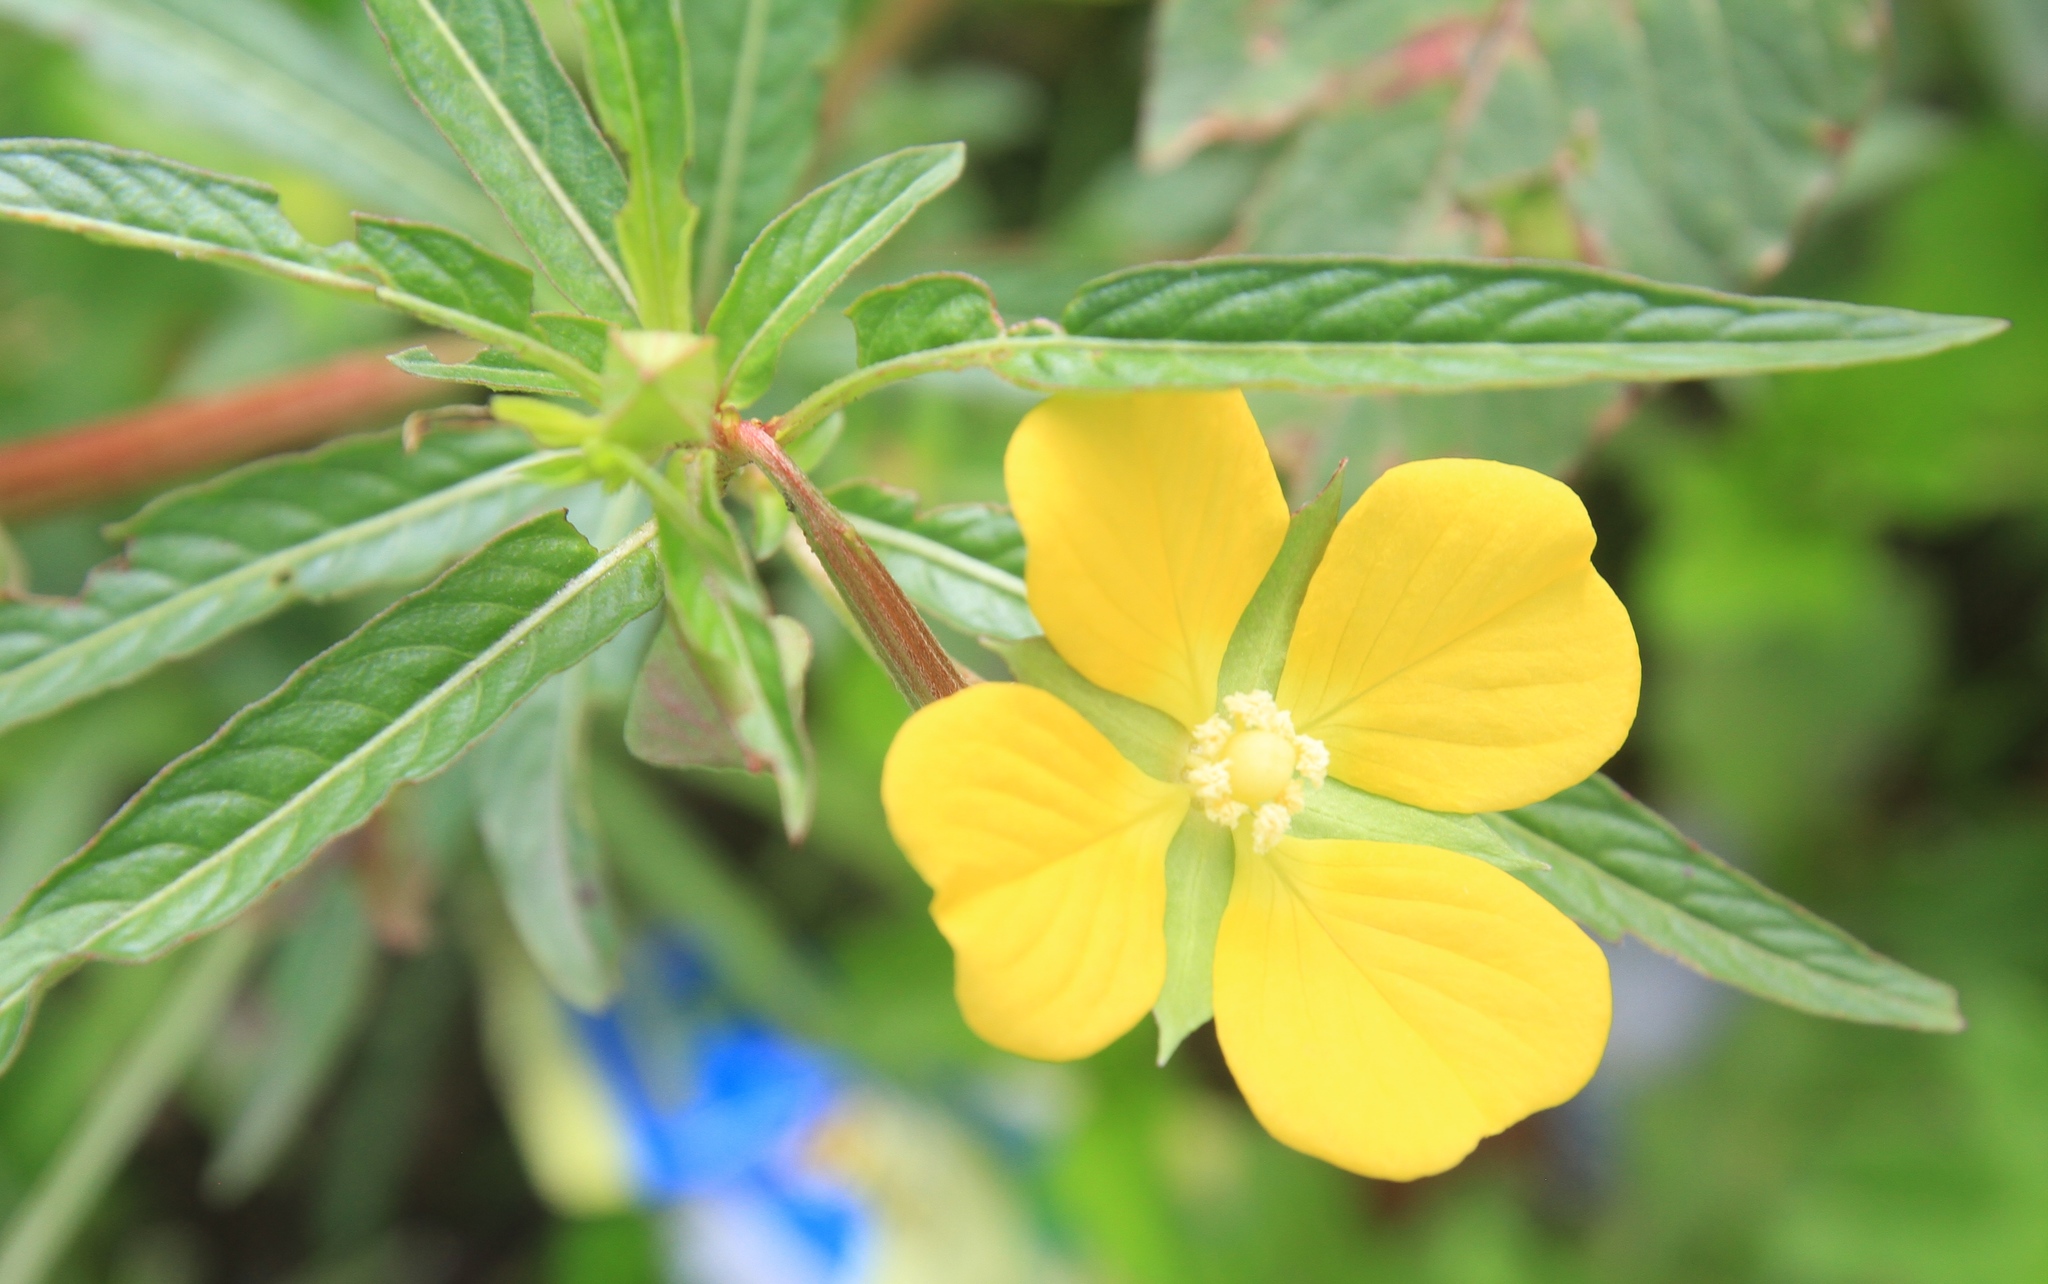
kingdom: Plantae
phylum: Tracheophyta
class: Magnoliopsida
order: Myrtales
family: Onagraceae
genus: Ludwigia
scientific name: Ludwigia octovalvis
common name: Water-primrose
